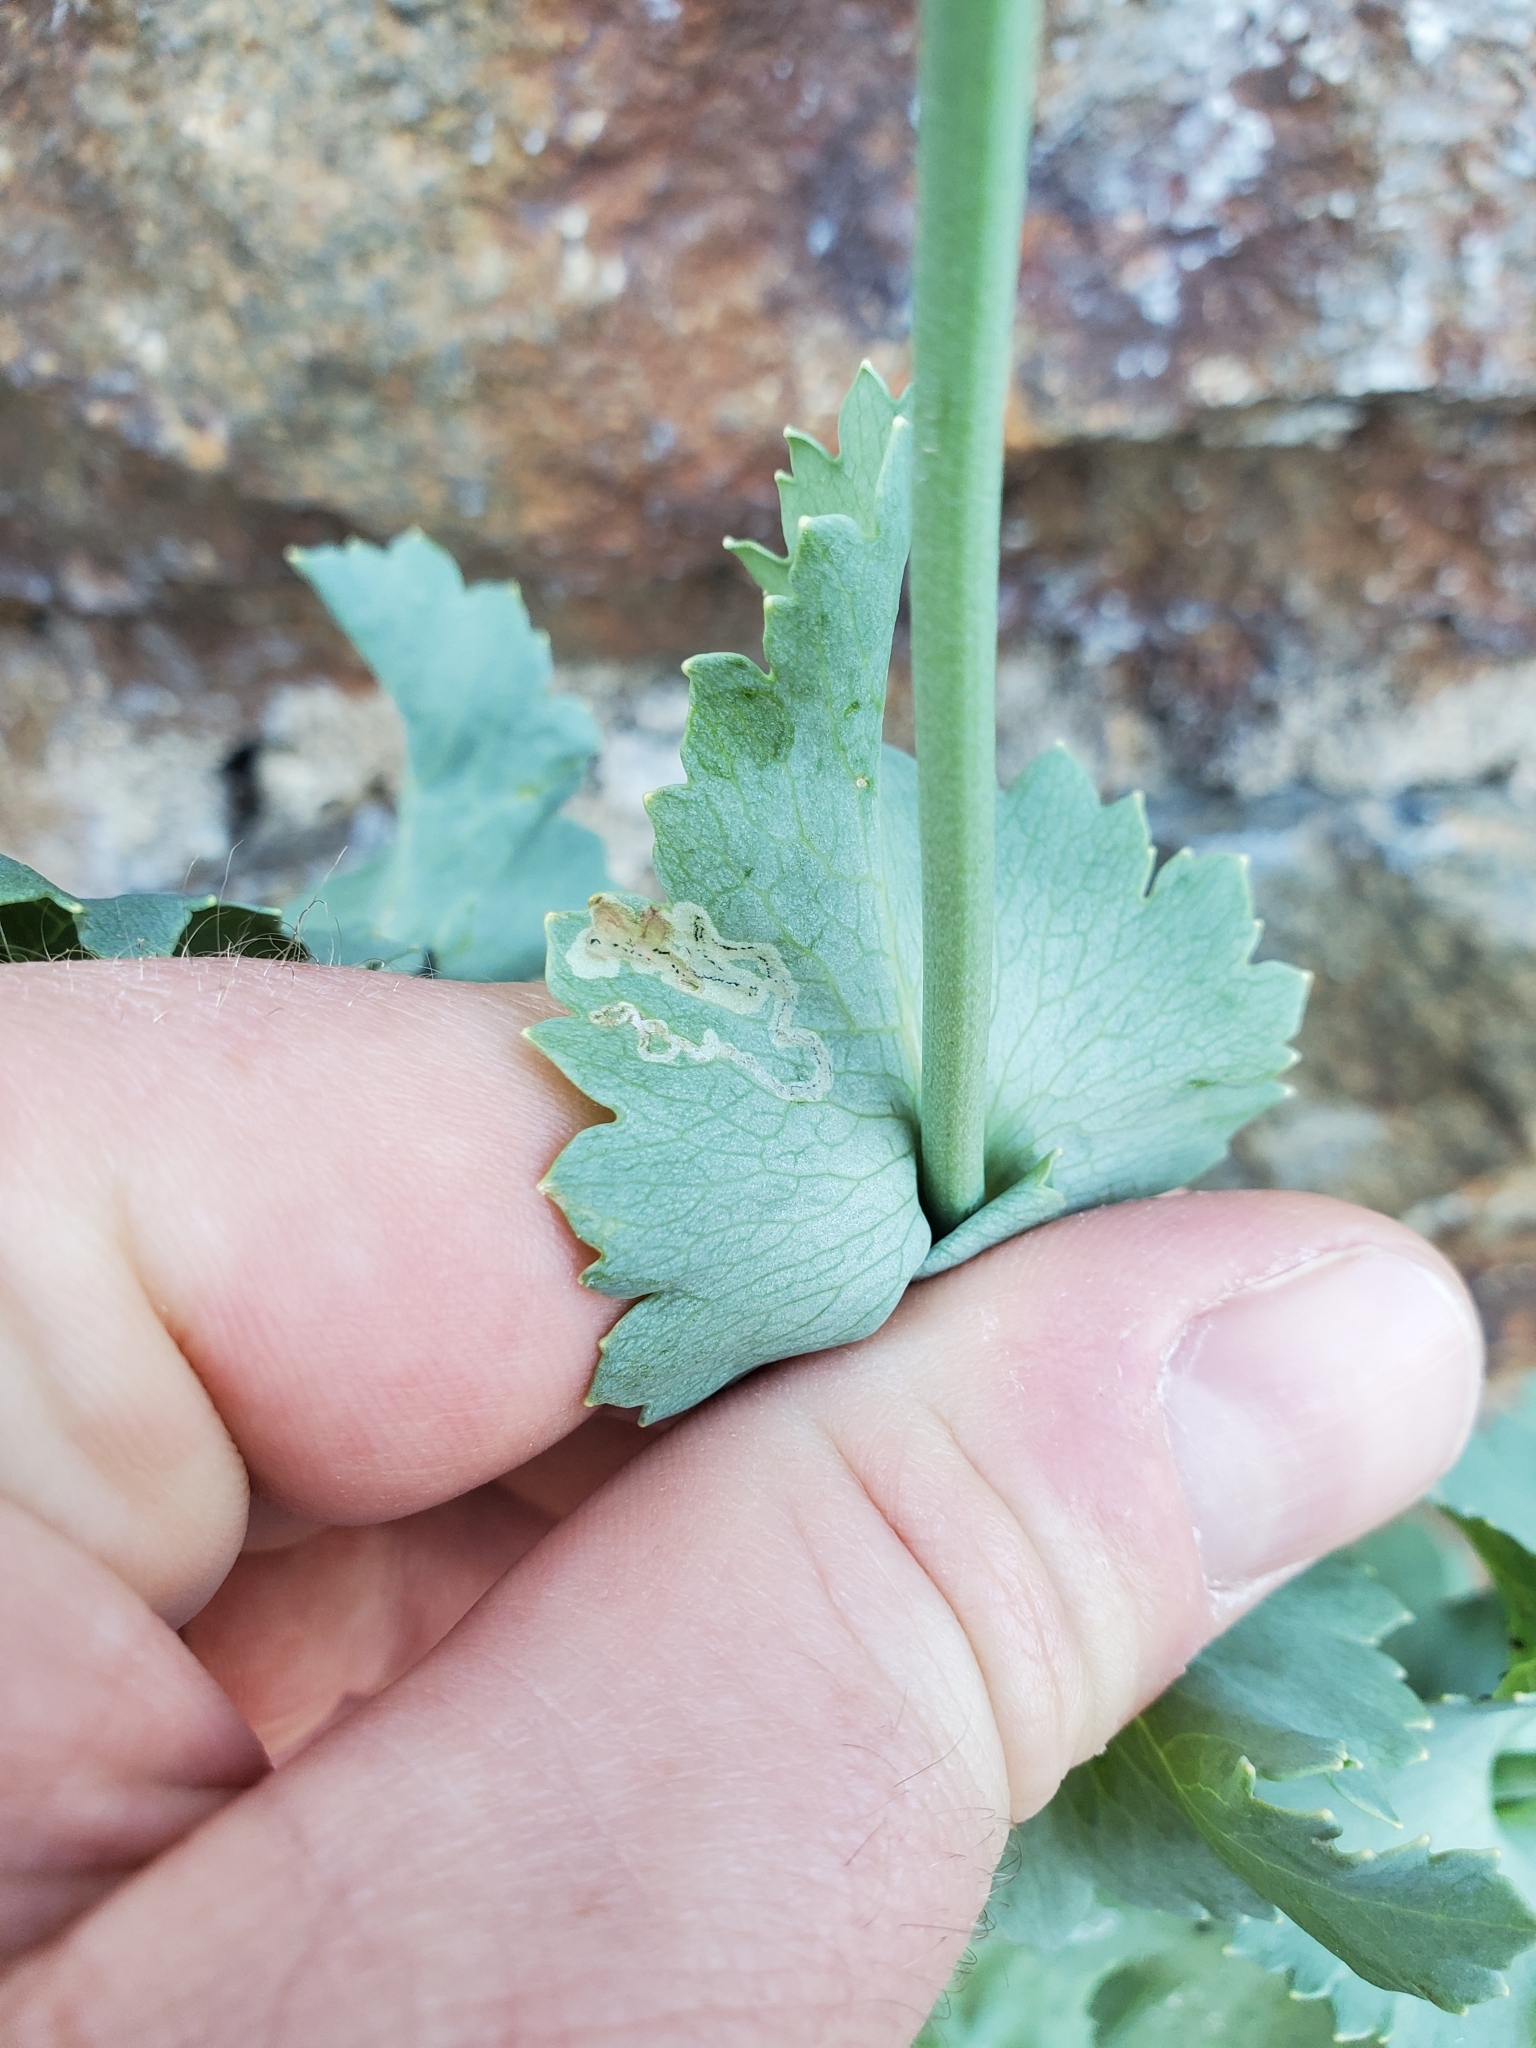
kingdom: Plantae
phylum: Tracheophyta
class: Magnoliopsida
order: Ranunculales
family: Papaveraceae
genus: Papaver
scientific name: Papaver somniferum
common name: Opium poppy
